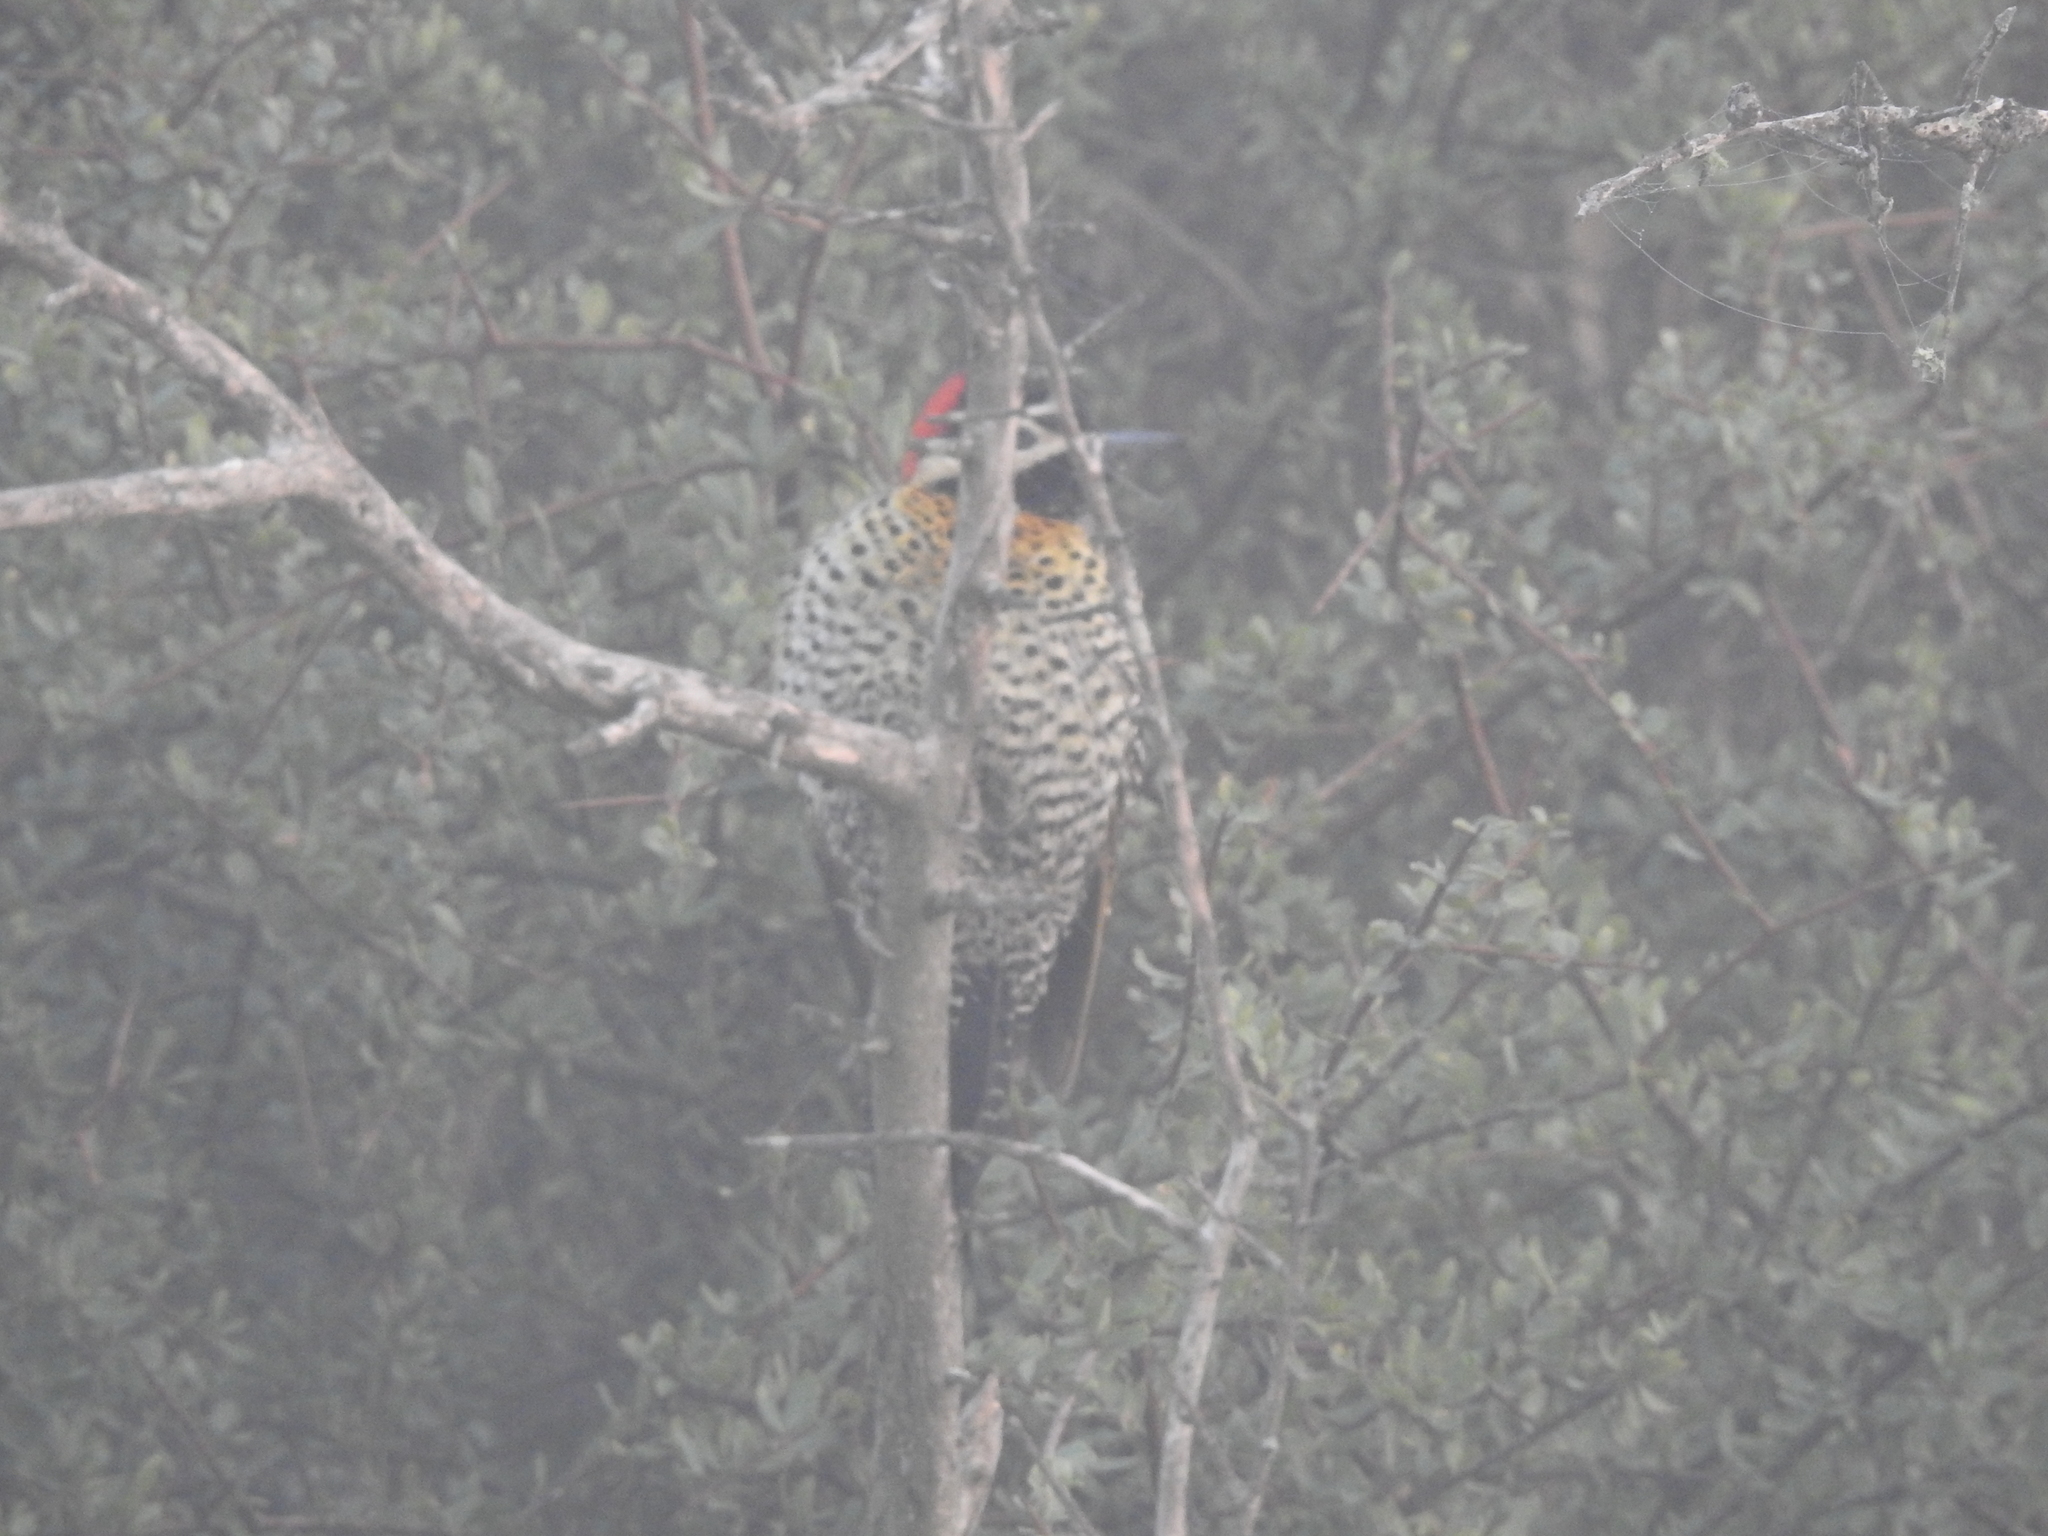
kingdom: Animalia
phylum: Chordata
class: Aves
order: Piciformes
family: Picidae
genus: Colaptes
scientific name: Colaptes melanochloros
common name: Green-barred woodpecker
